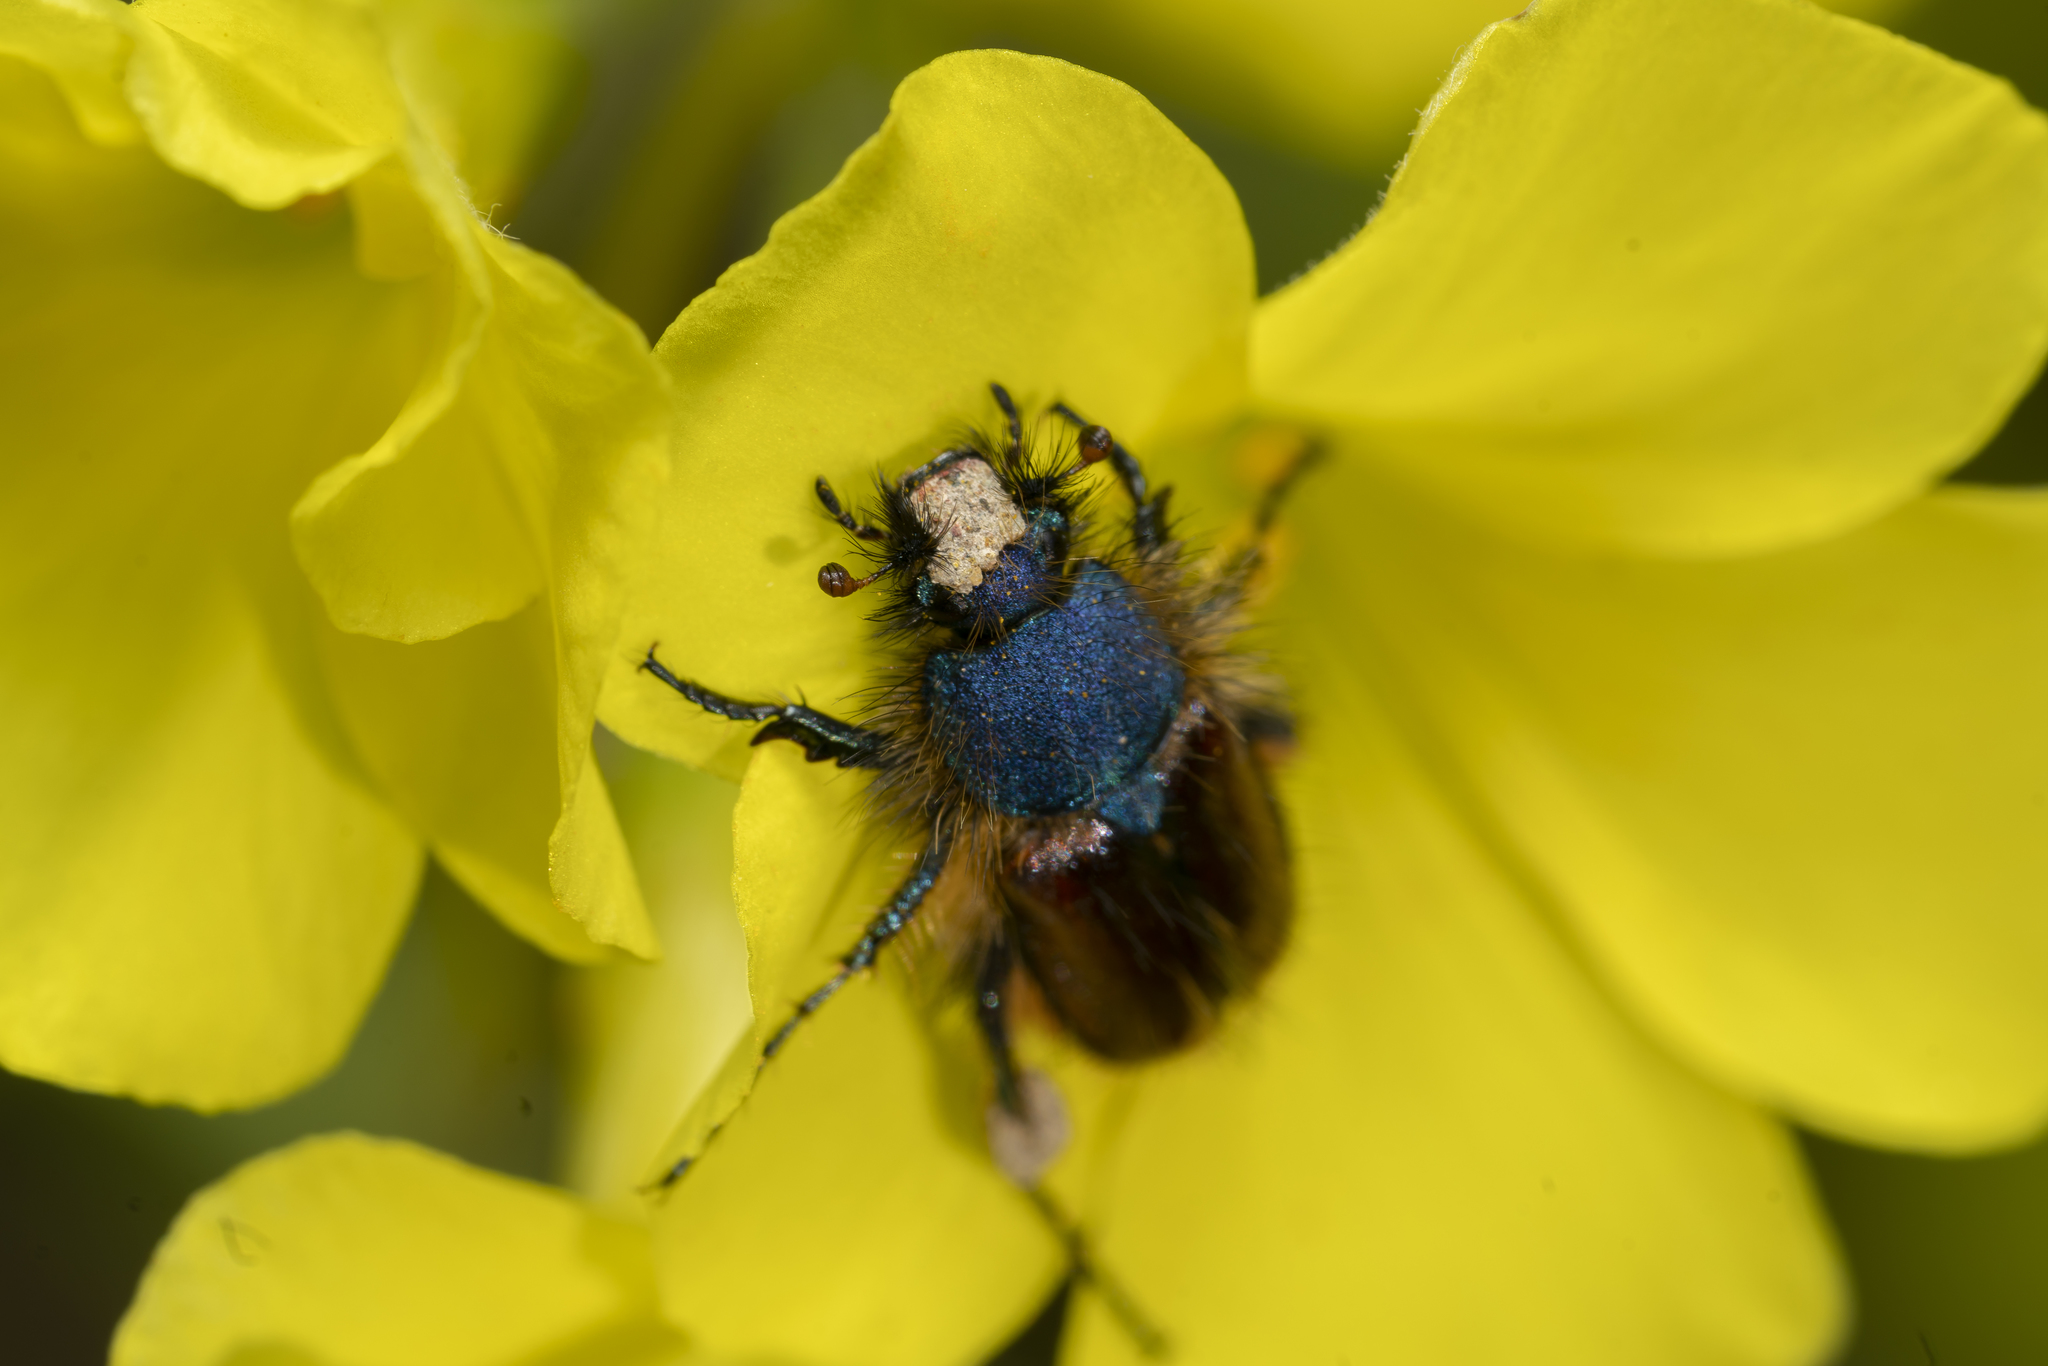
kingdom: Animalia
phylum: Arthropoda
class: Insecta
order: Coleoptera
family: Glaphyridae
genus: Pygopleurus
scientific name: Pygopleurus foina
